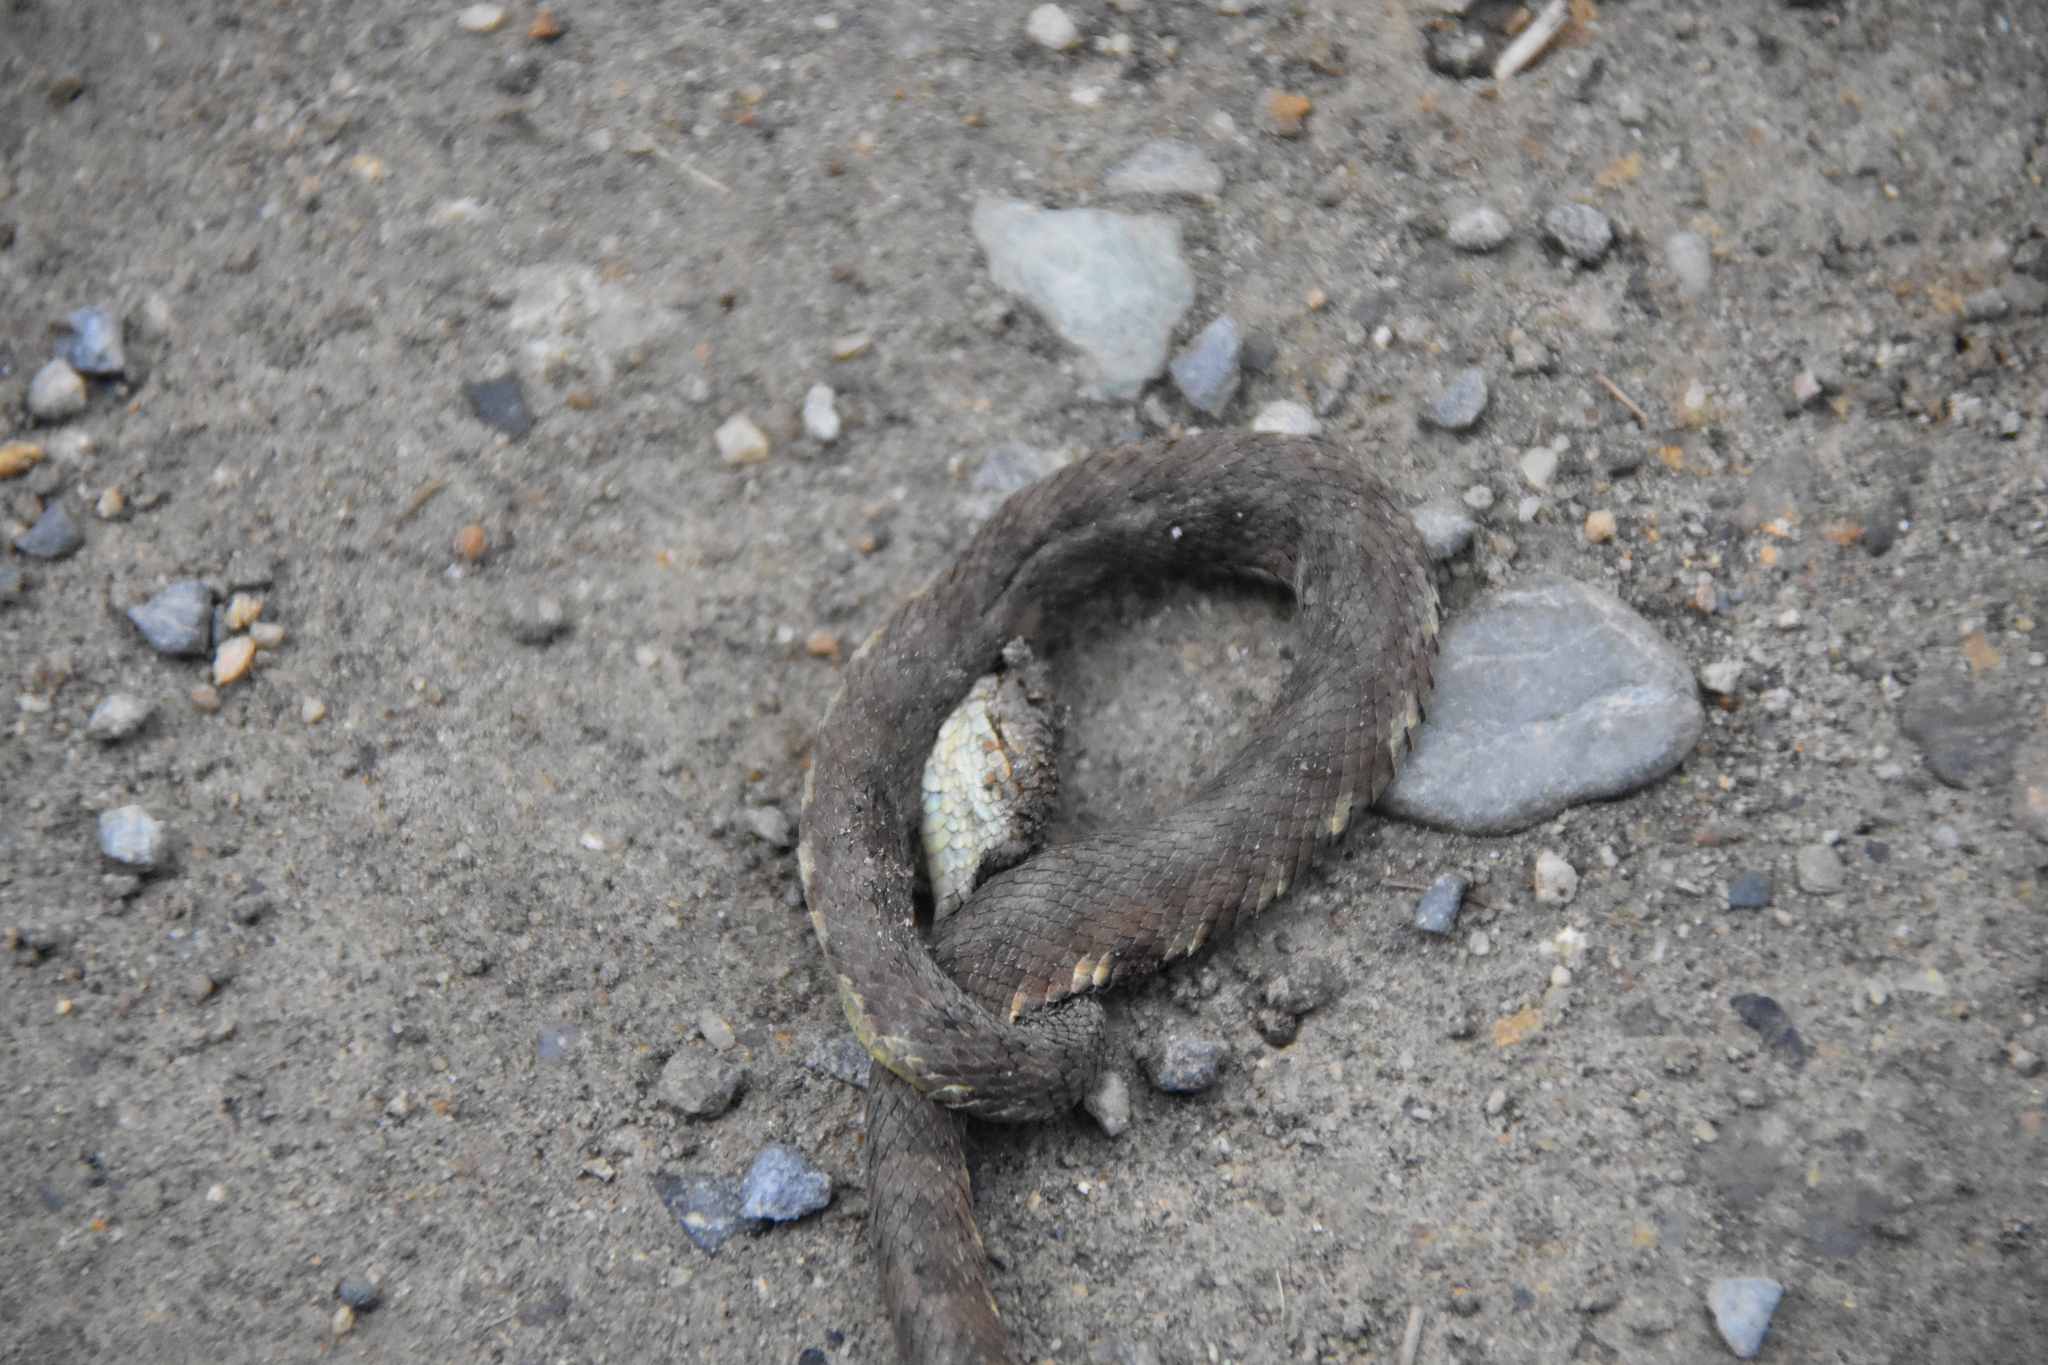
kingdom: Animalia
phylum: Chordata
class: Squamata
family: Viperidae
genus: Bothriechis
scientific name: Bothriechis schlegelii
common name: Eyelash viper
